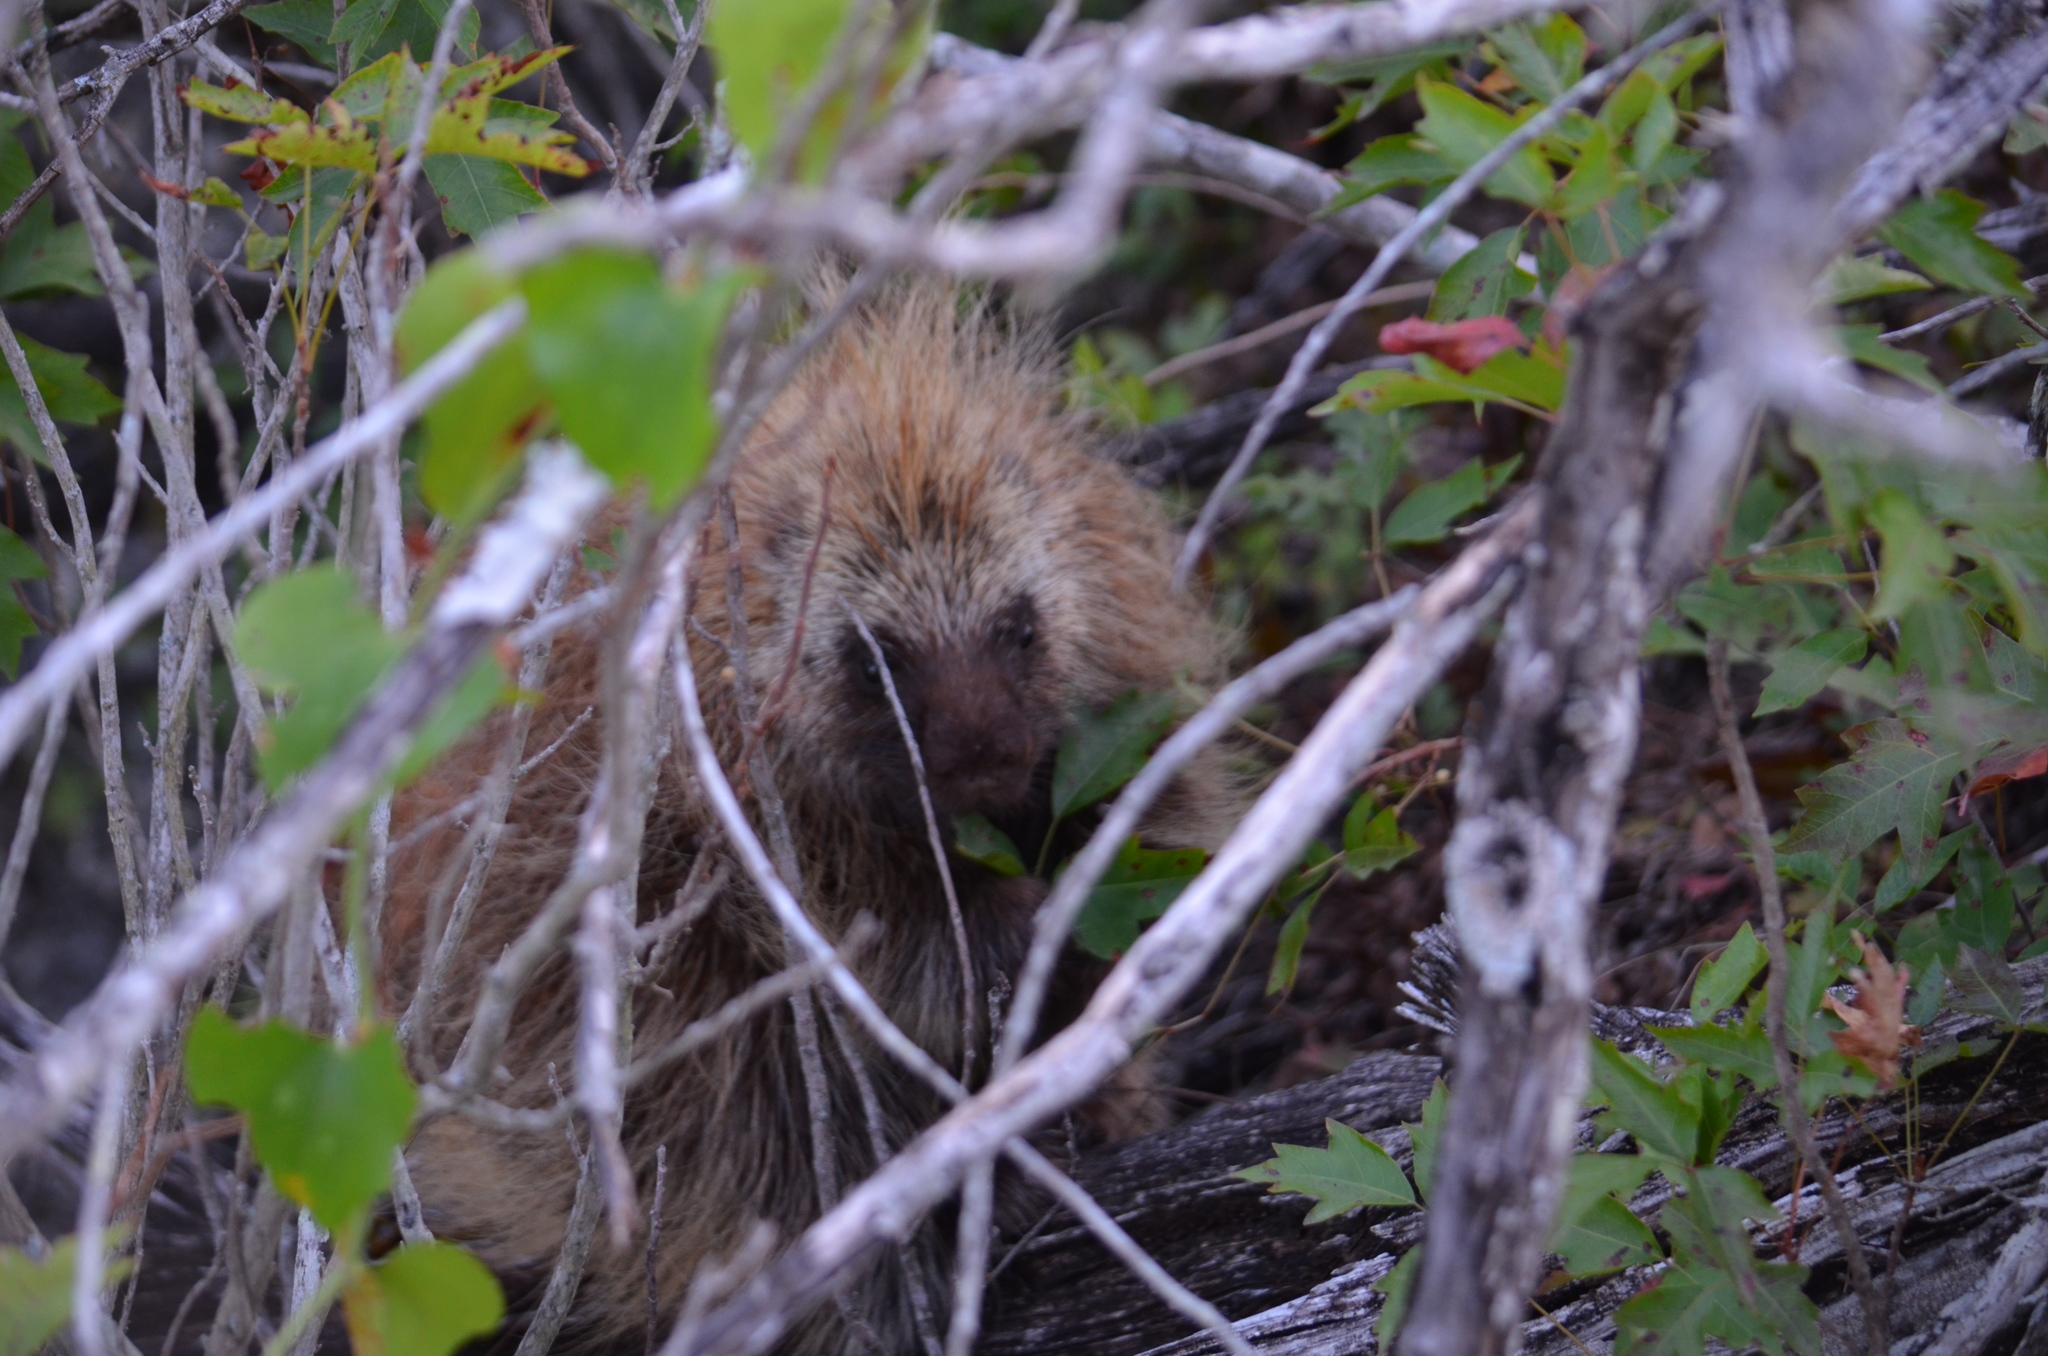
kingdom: Animalia
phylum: Chordata
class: Mammalia
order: Rodentia
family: Erethizontidae
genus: Erethizon
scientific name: Erethizon dorsatus
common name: North american porcupine
